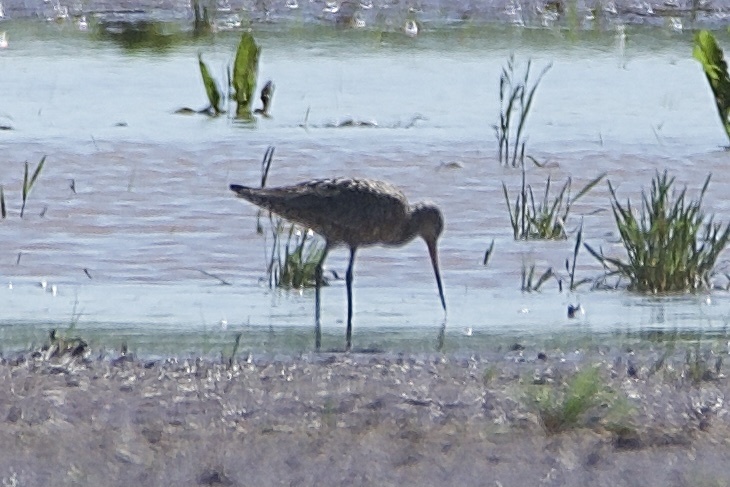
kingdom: Animalia
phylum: Chordata
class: Aves
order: Charadriiformes
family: Scolopacidae
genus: Limosa
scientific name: Limosa haemastica
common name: Hudsonian godwit
